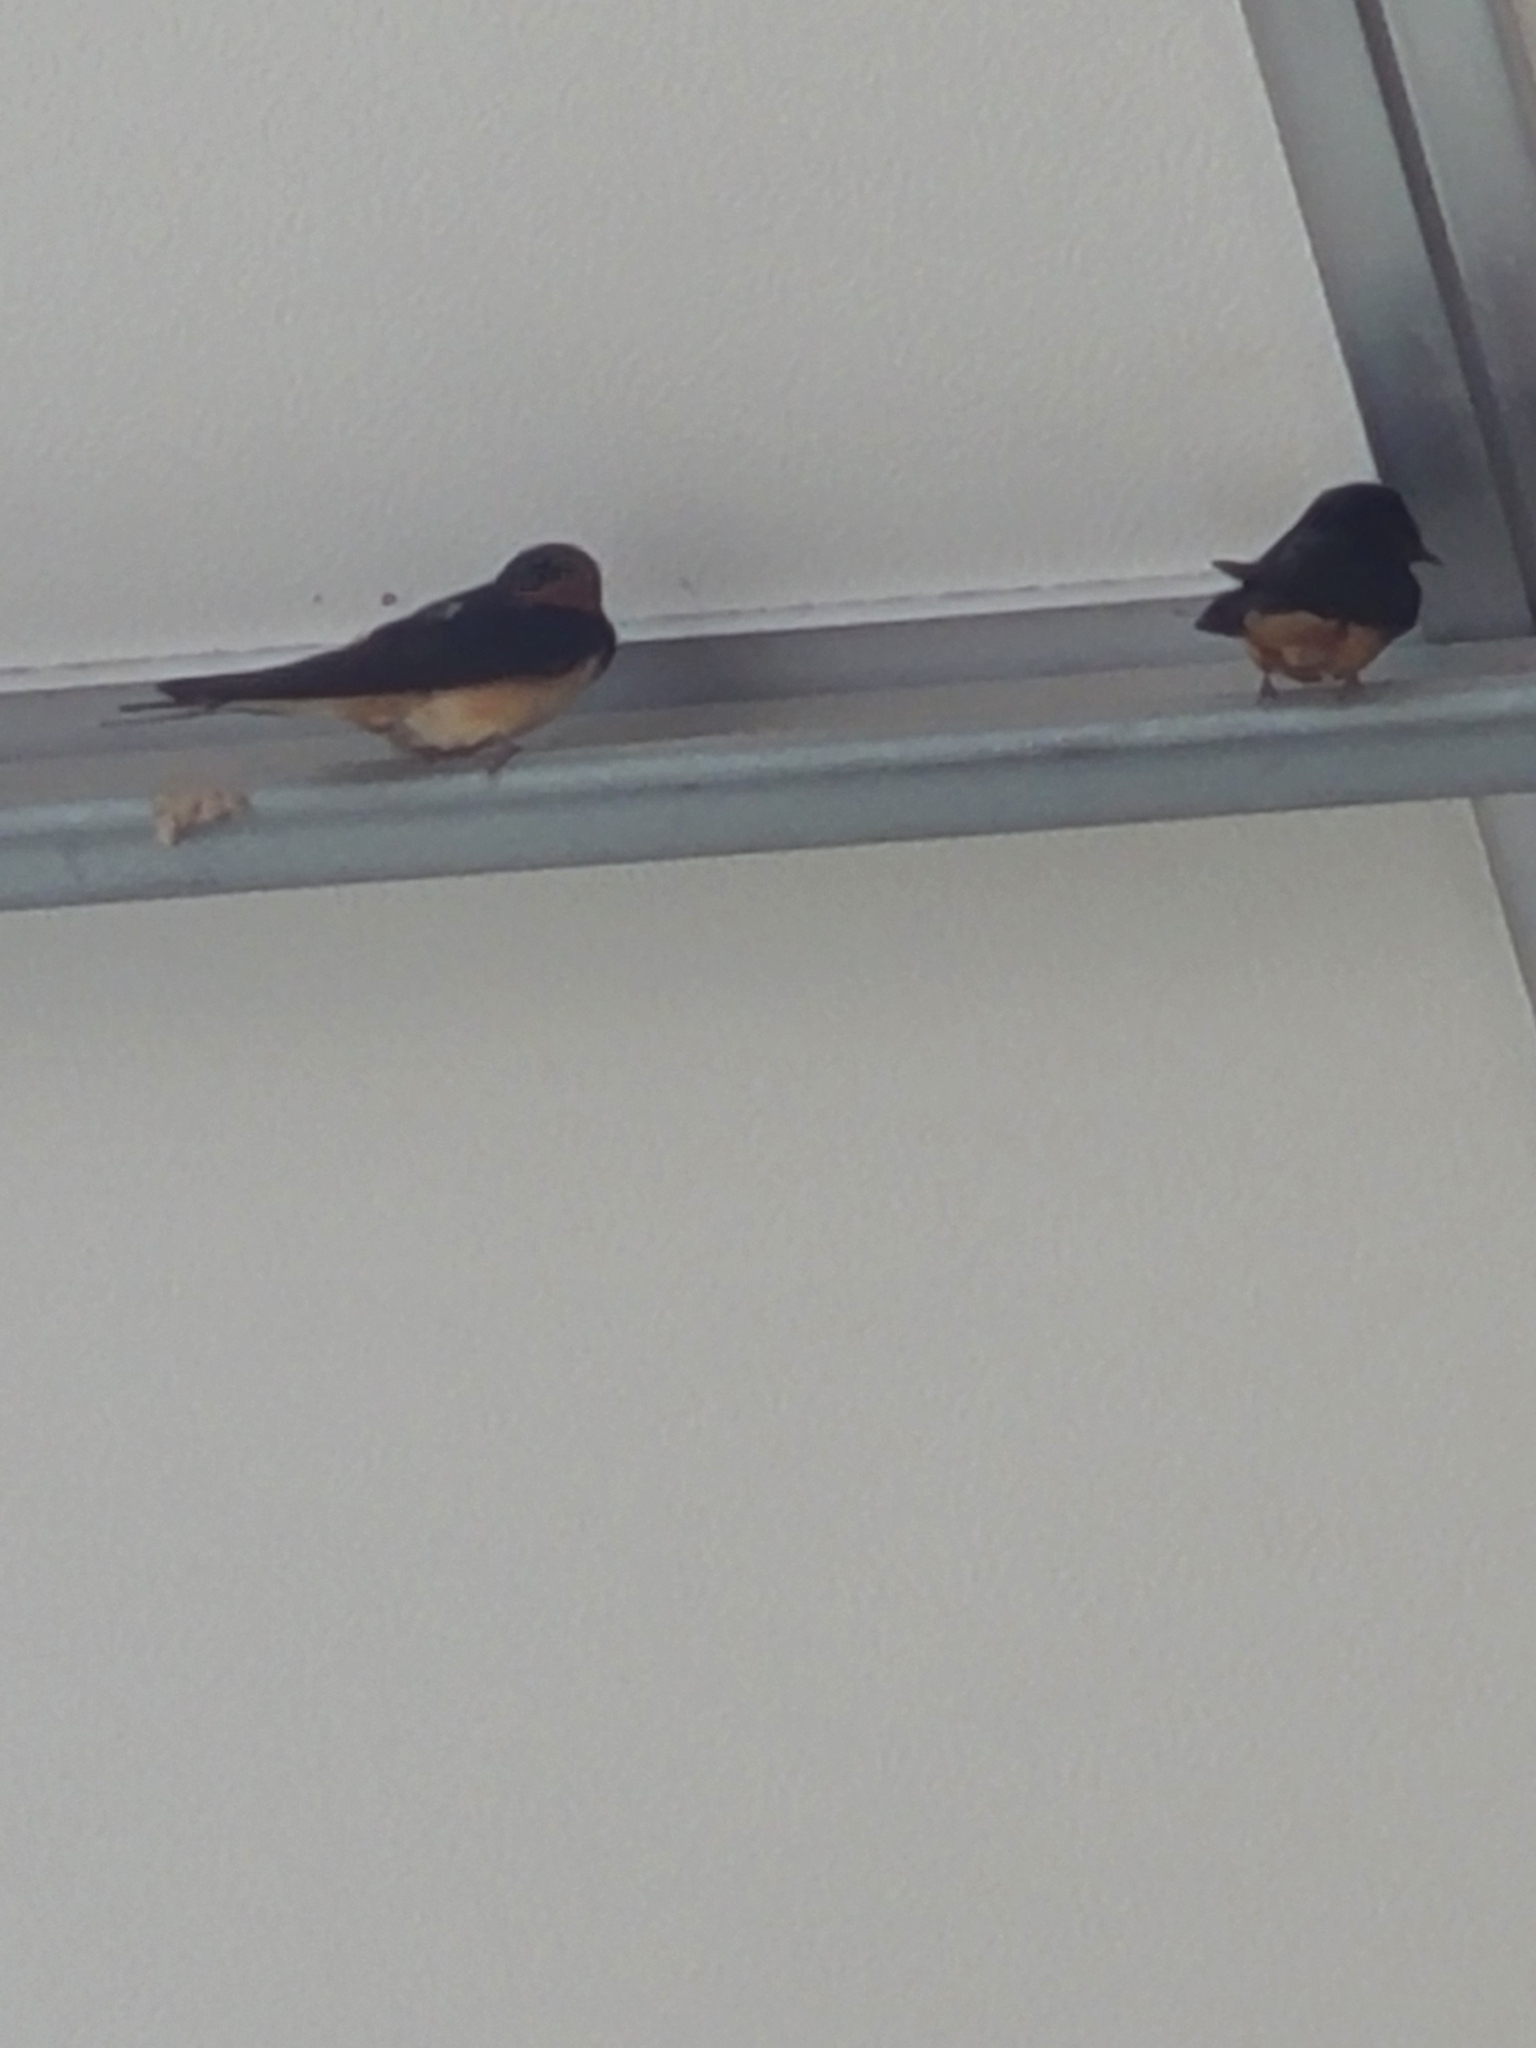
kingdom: Animalia
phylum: Chordata
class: Aves
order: Passeriformes
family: Hirundinidae
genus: Hirundo
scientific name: Hirundo rustica
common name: Barn swallow
